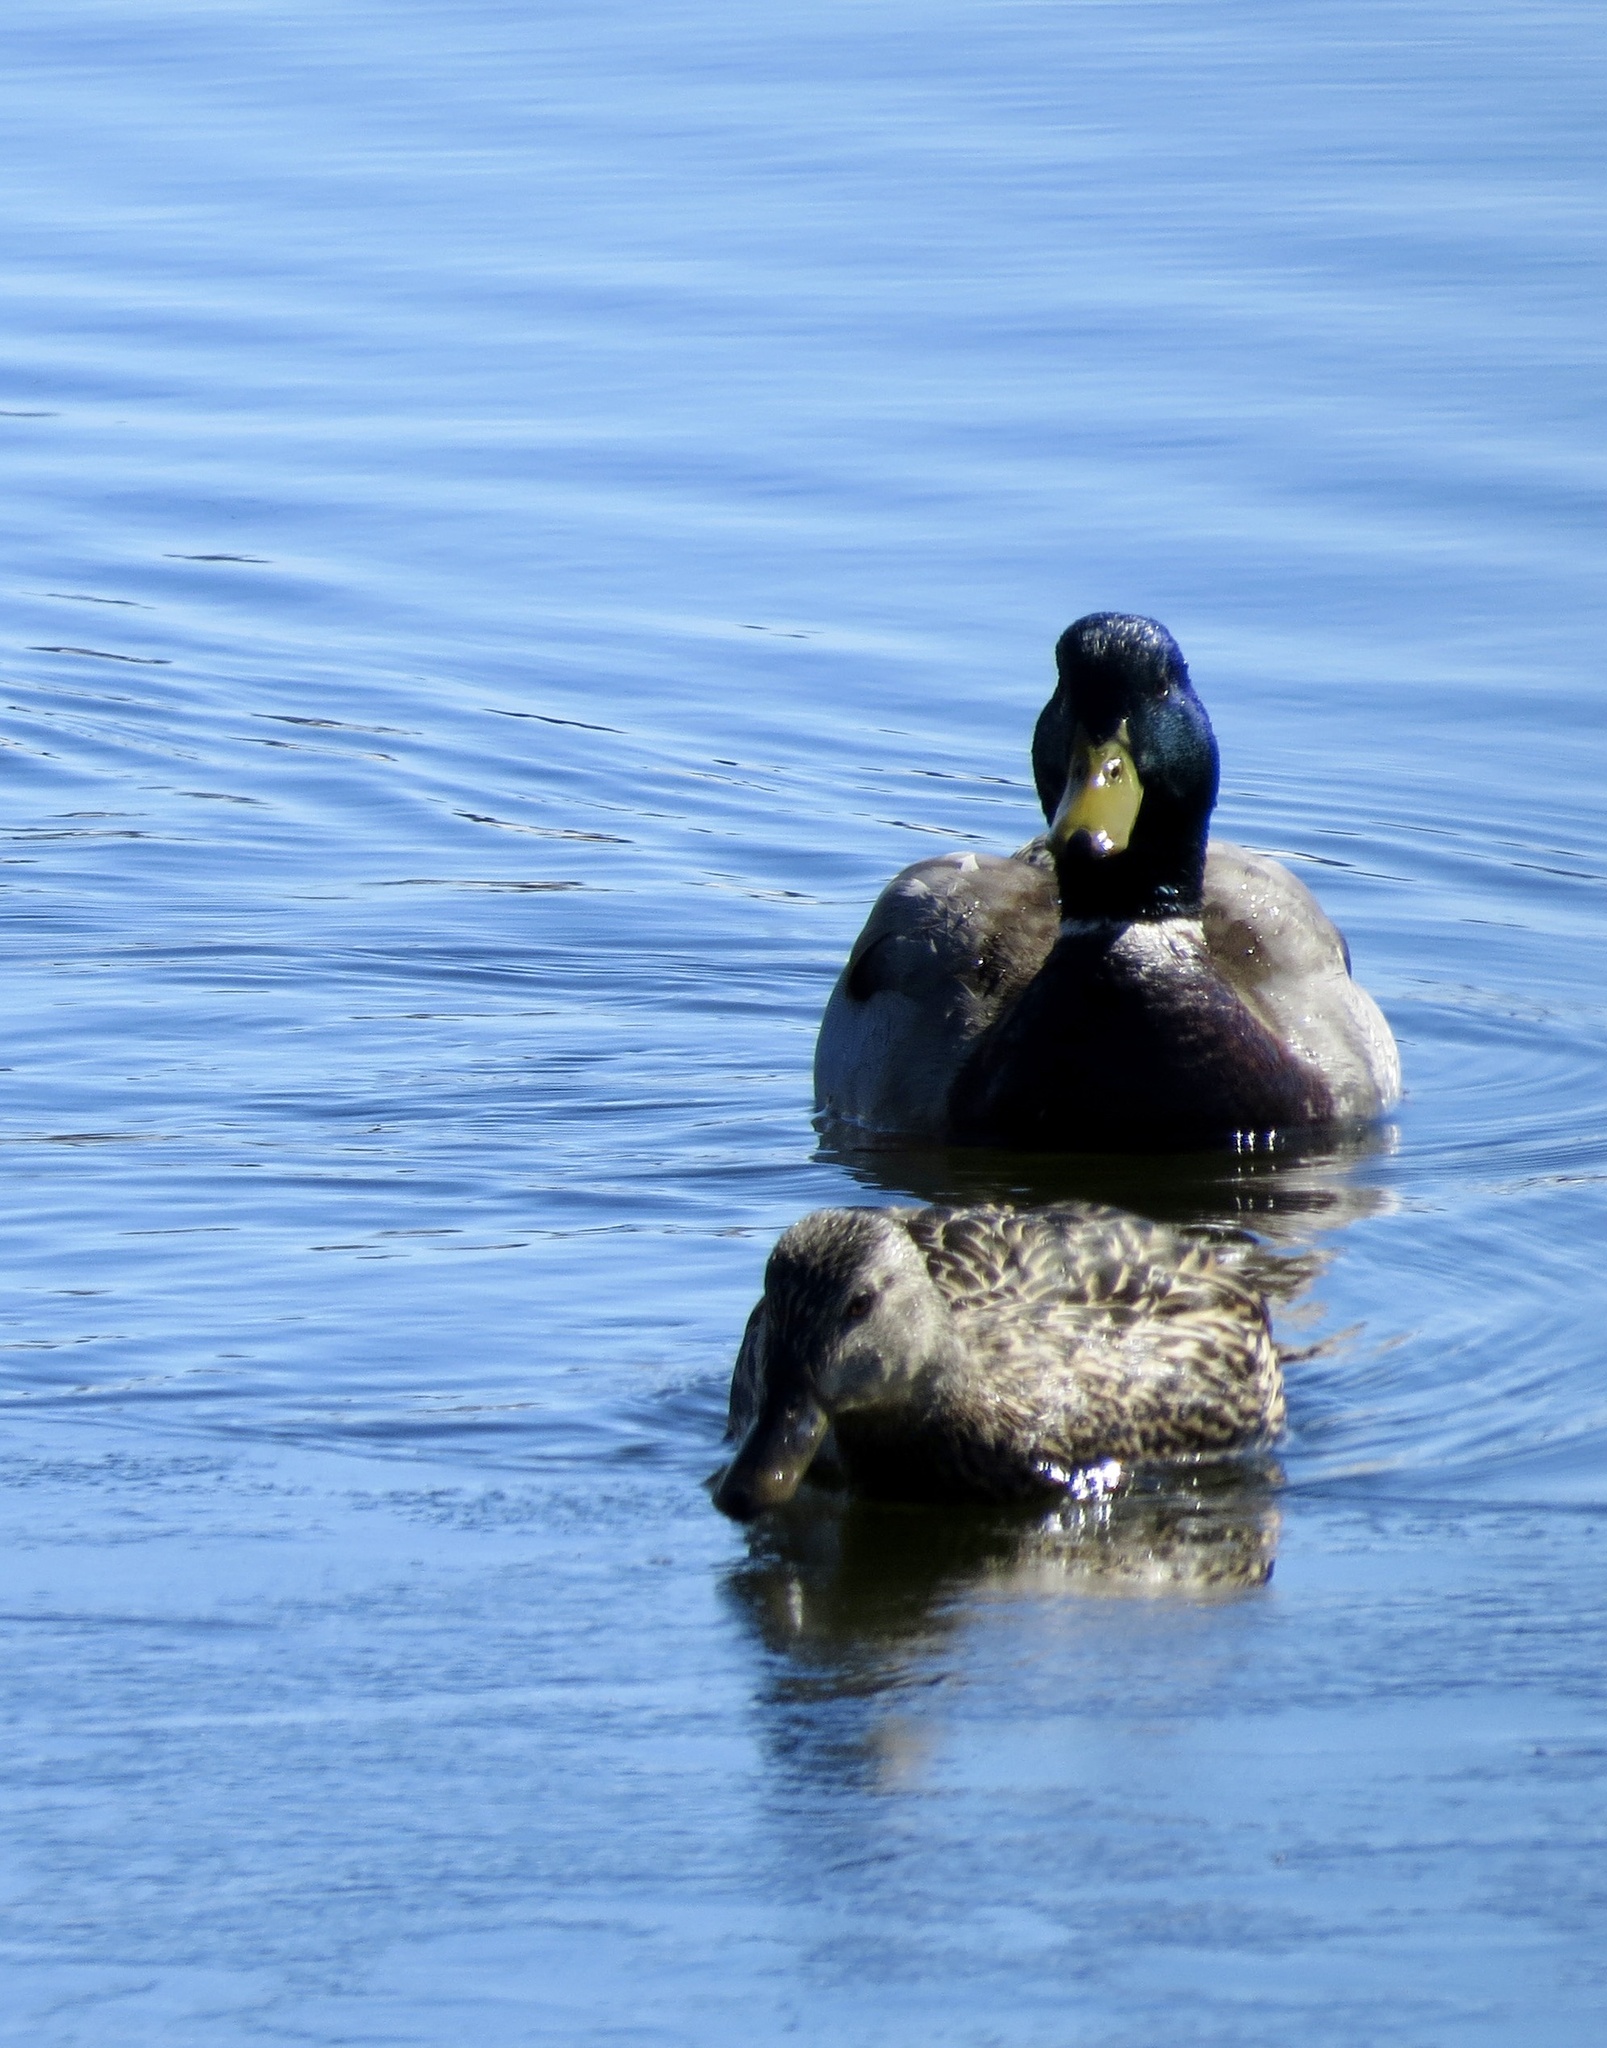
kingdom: Animalia
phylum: Chordata
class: Aves
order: Anseriformes
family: Anatidae
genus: Anas
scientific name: Anas platyrhynchos
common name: Mallard
